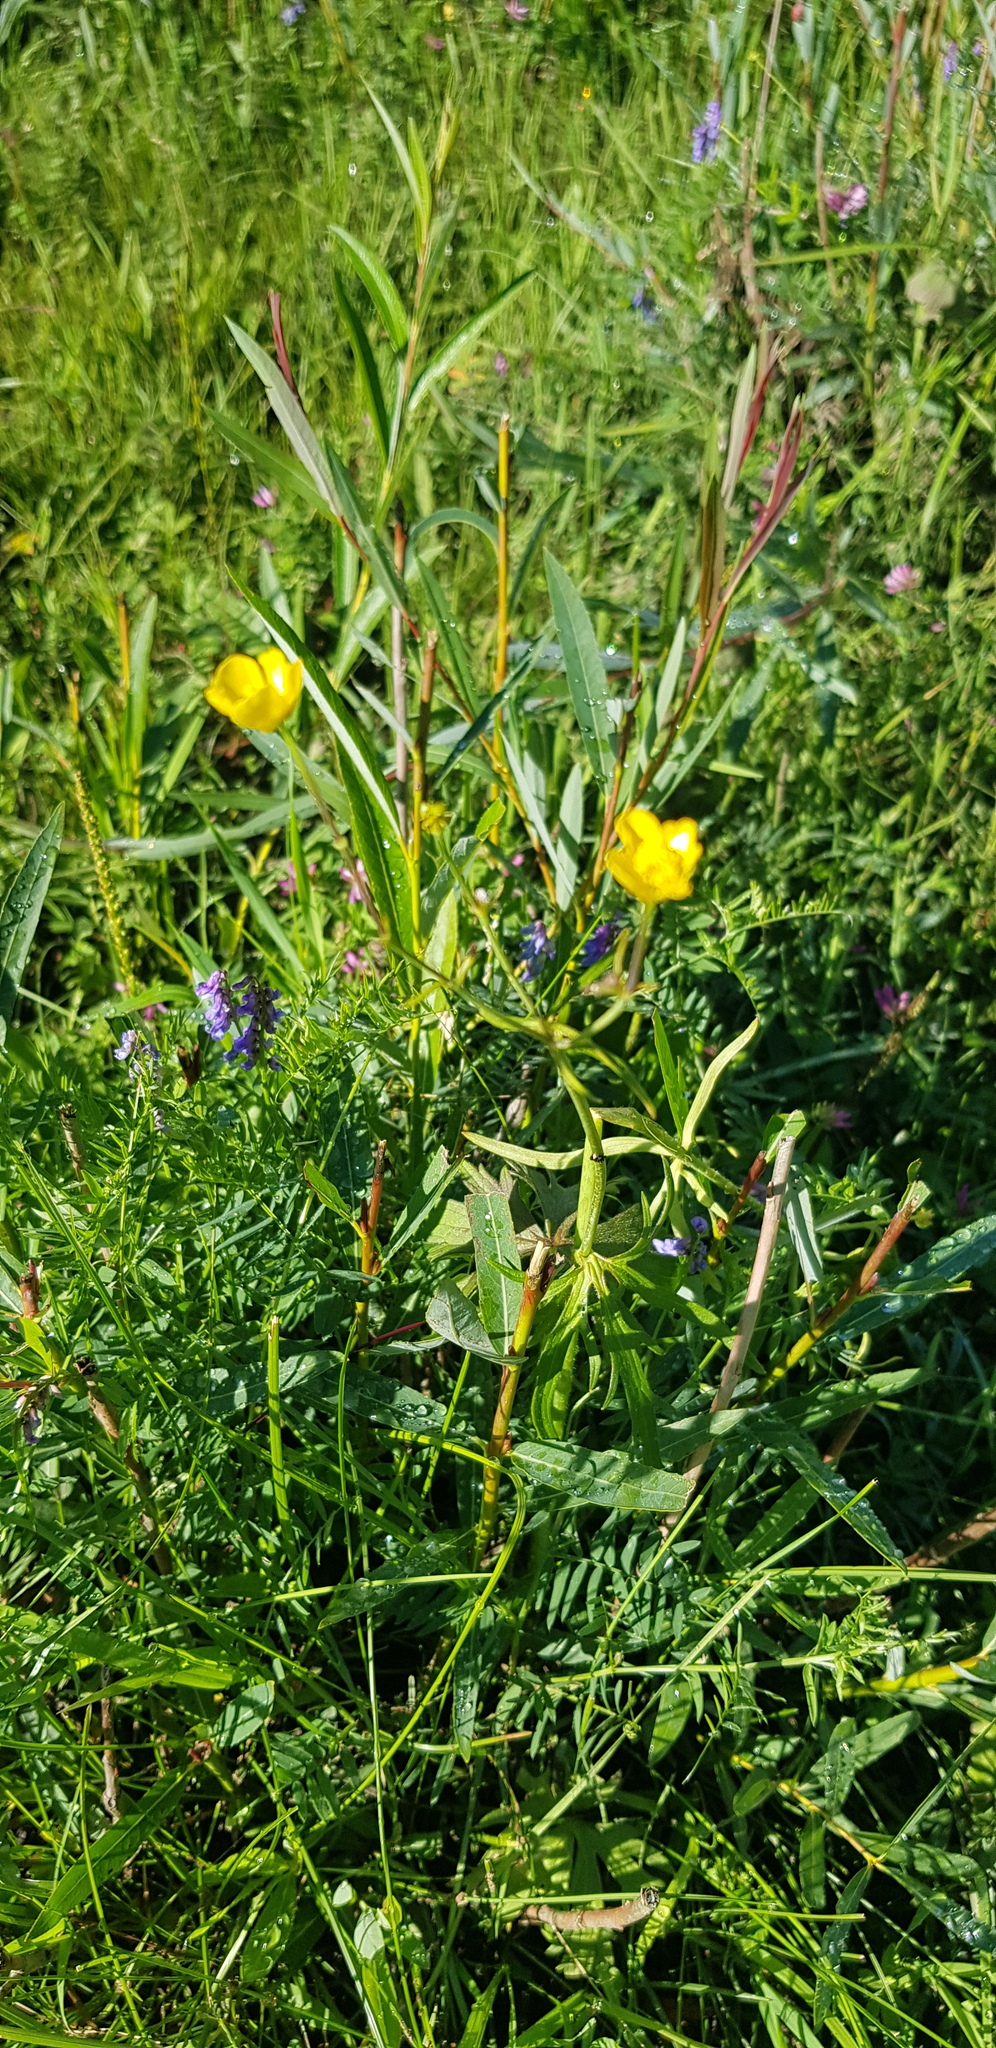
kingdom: Plantae
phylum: Tracheophyta
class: Magnoliopsida
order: Ranunculales
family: Ranunculaceae
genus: Ranunculus
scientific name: Ranunculus acris
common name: Meadow buttercup
